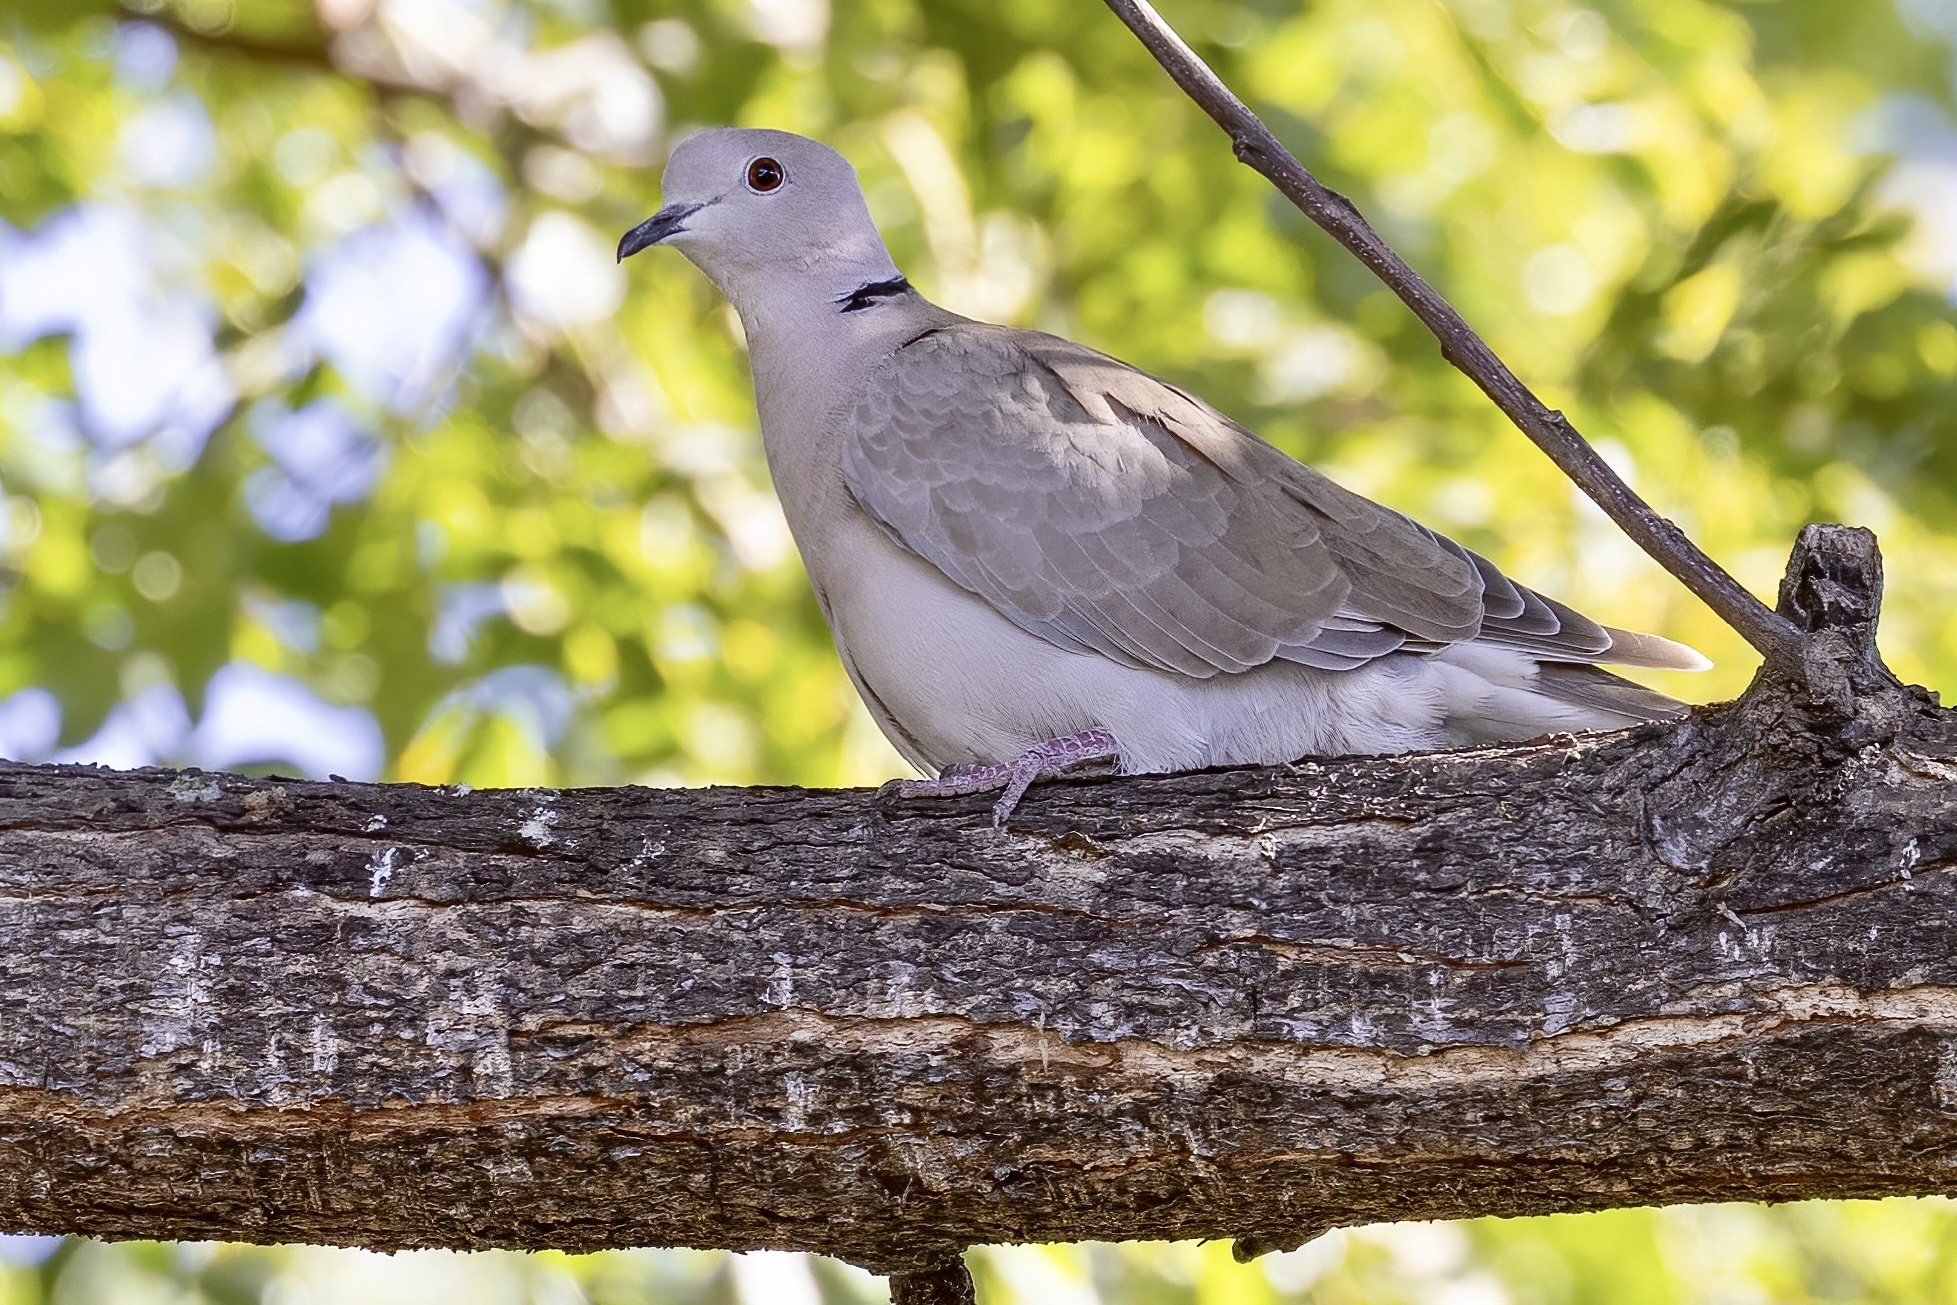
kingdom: Animalia
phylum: Chordata
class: Aves
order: Columbiformes
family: Columbidae
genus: Streptopelia
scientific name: Streptopelia roseogrisea
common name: African collared dove
